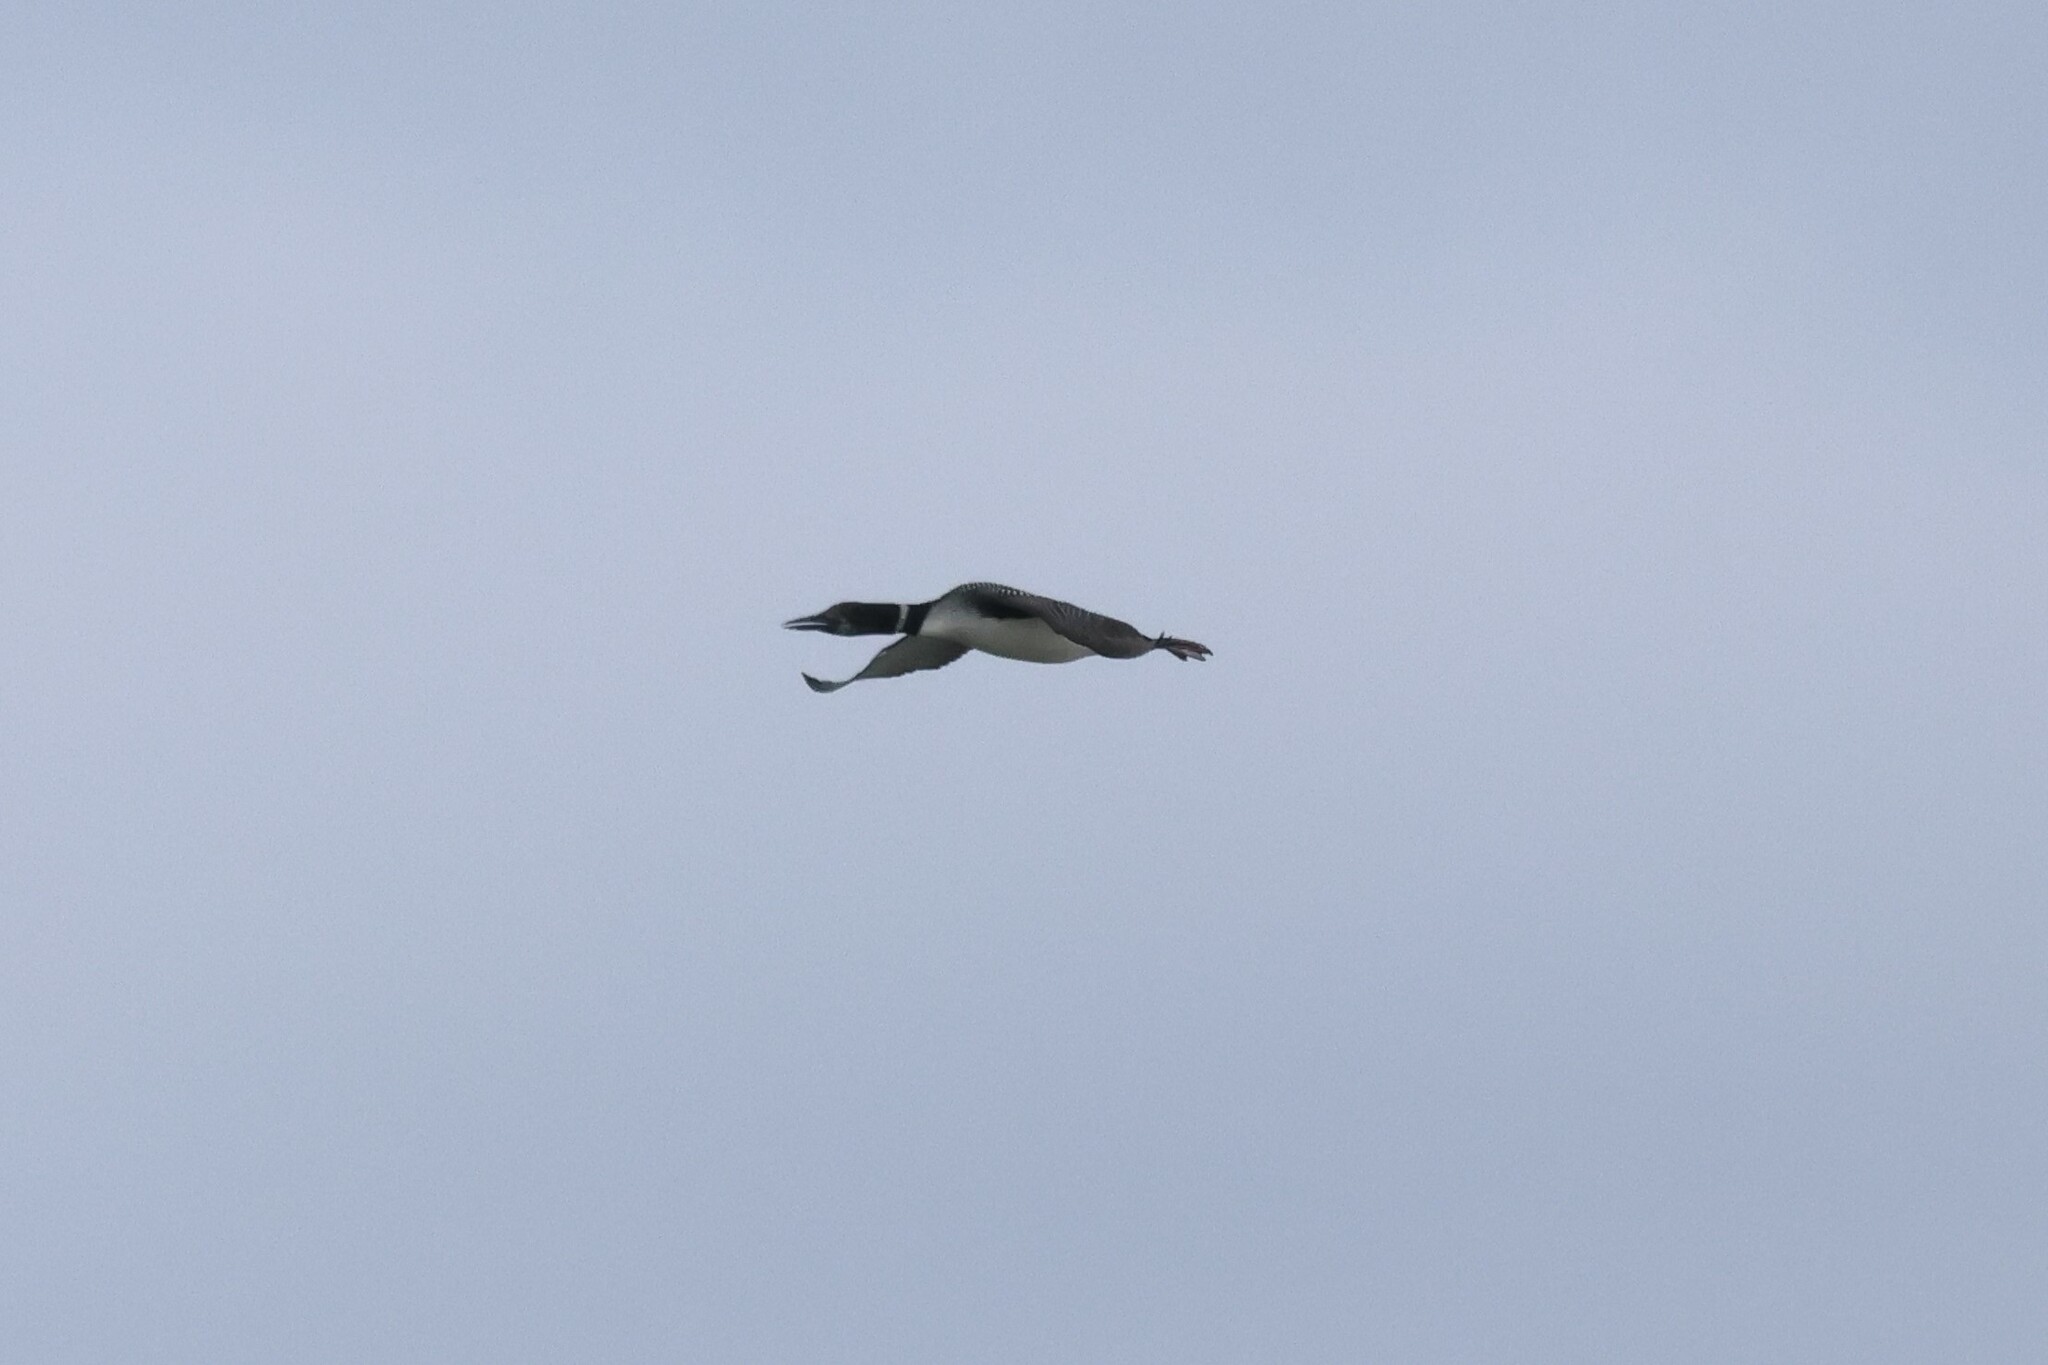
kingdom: Animalia
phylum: Chordata
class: Aves
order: Gaviiformes
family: Gaviidae
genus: Gavia
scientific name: Gavia immer
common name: Common loon
